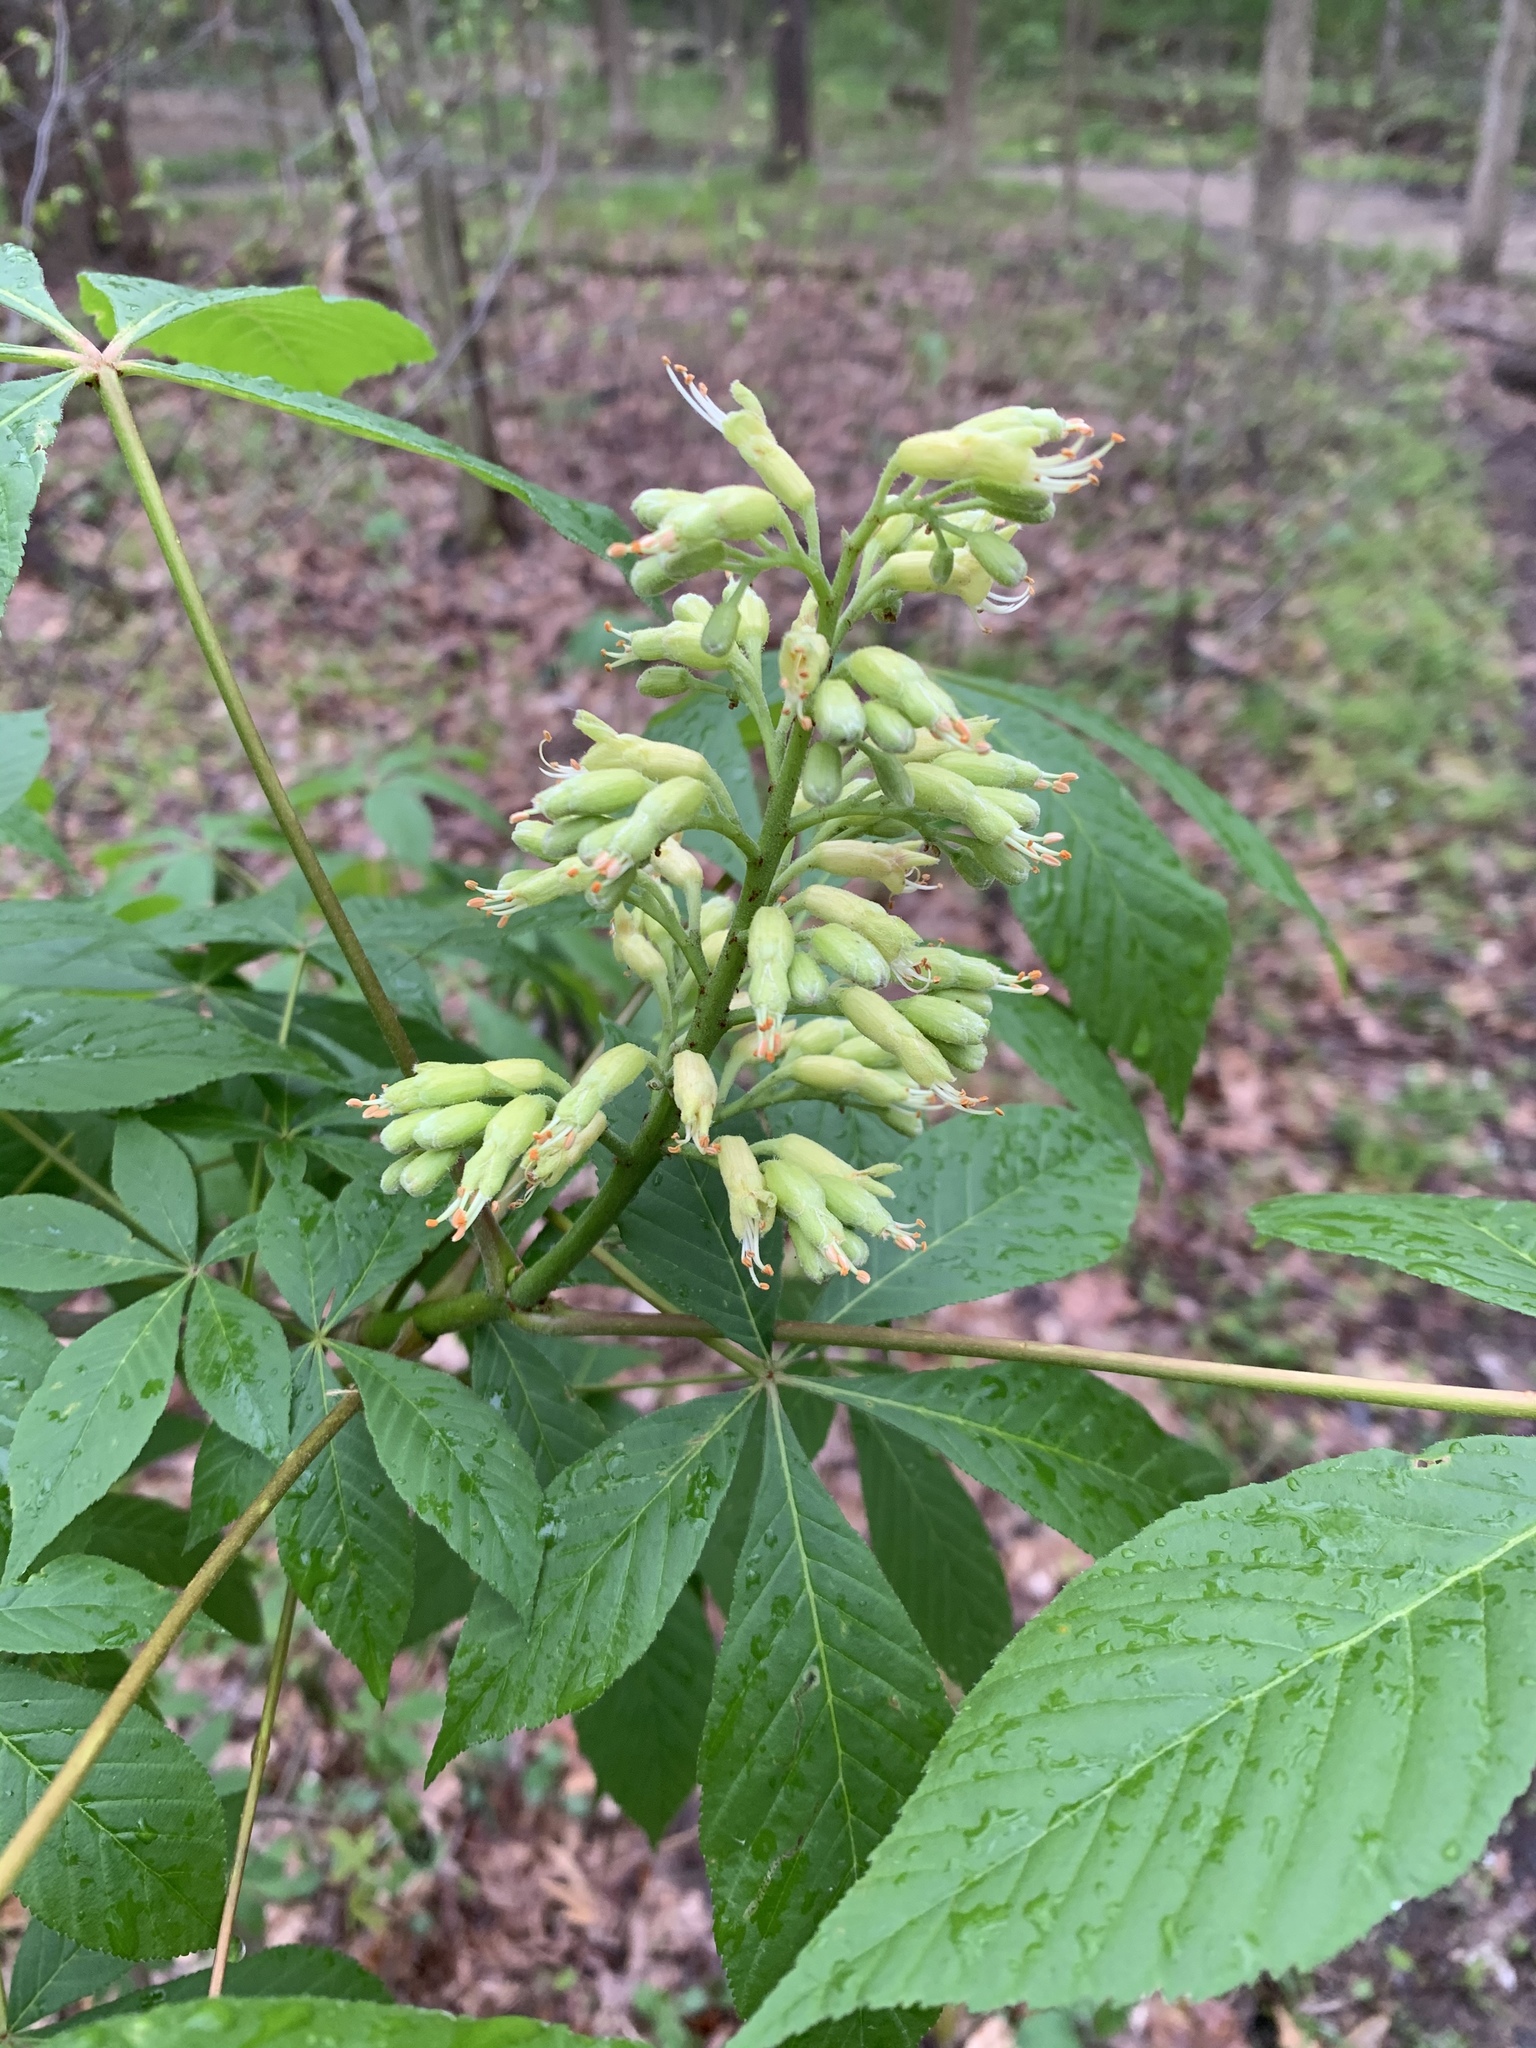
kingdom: Plantae
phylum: Tracheophyta
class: Magnoliopsida
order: Sapindales
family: Sapindaceae
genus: Aesculus
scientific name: Aesculus glabra
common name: Ohio buckeye
